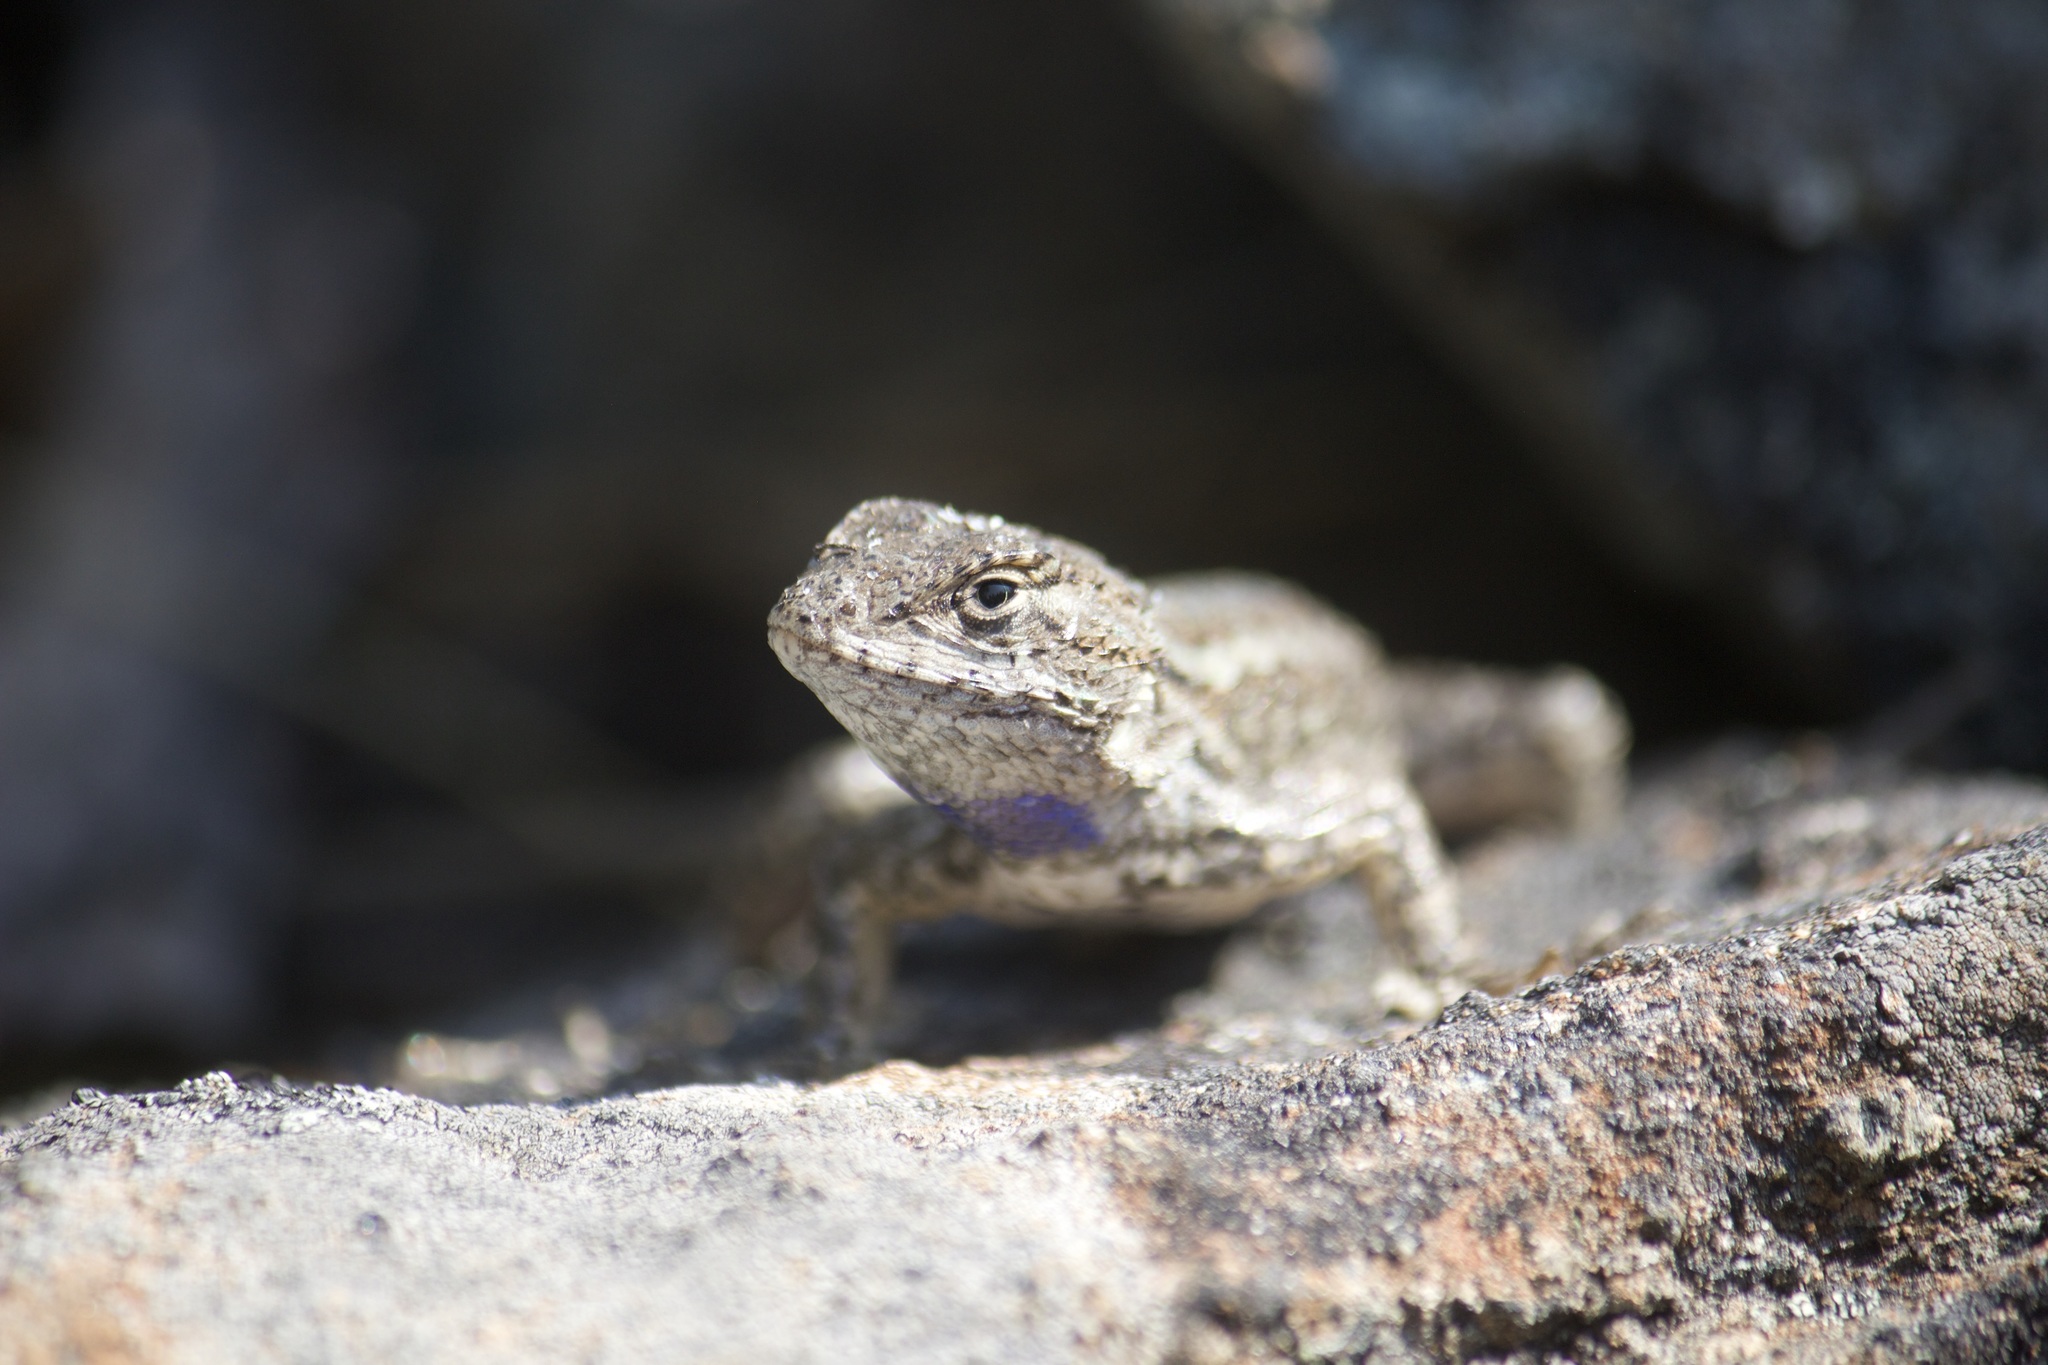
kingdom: Animalia
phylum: Chordata
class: Squamata
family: Phrynosomatidae
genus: Sceloporus
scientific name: Sceloporus occidentalis
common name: Western fence lizard
